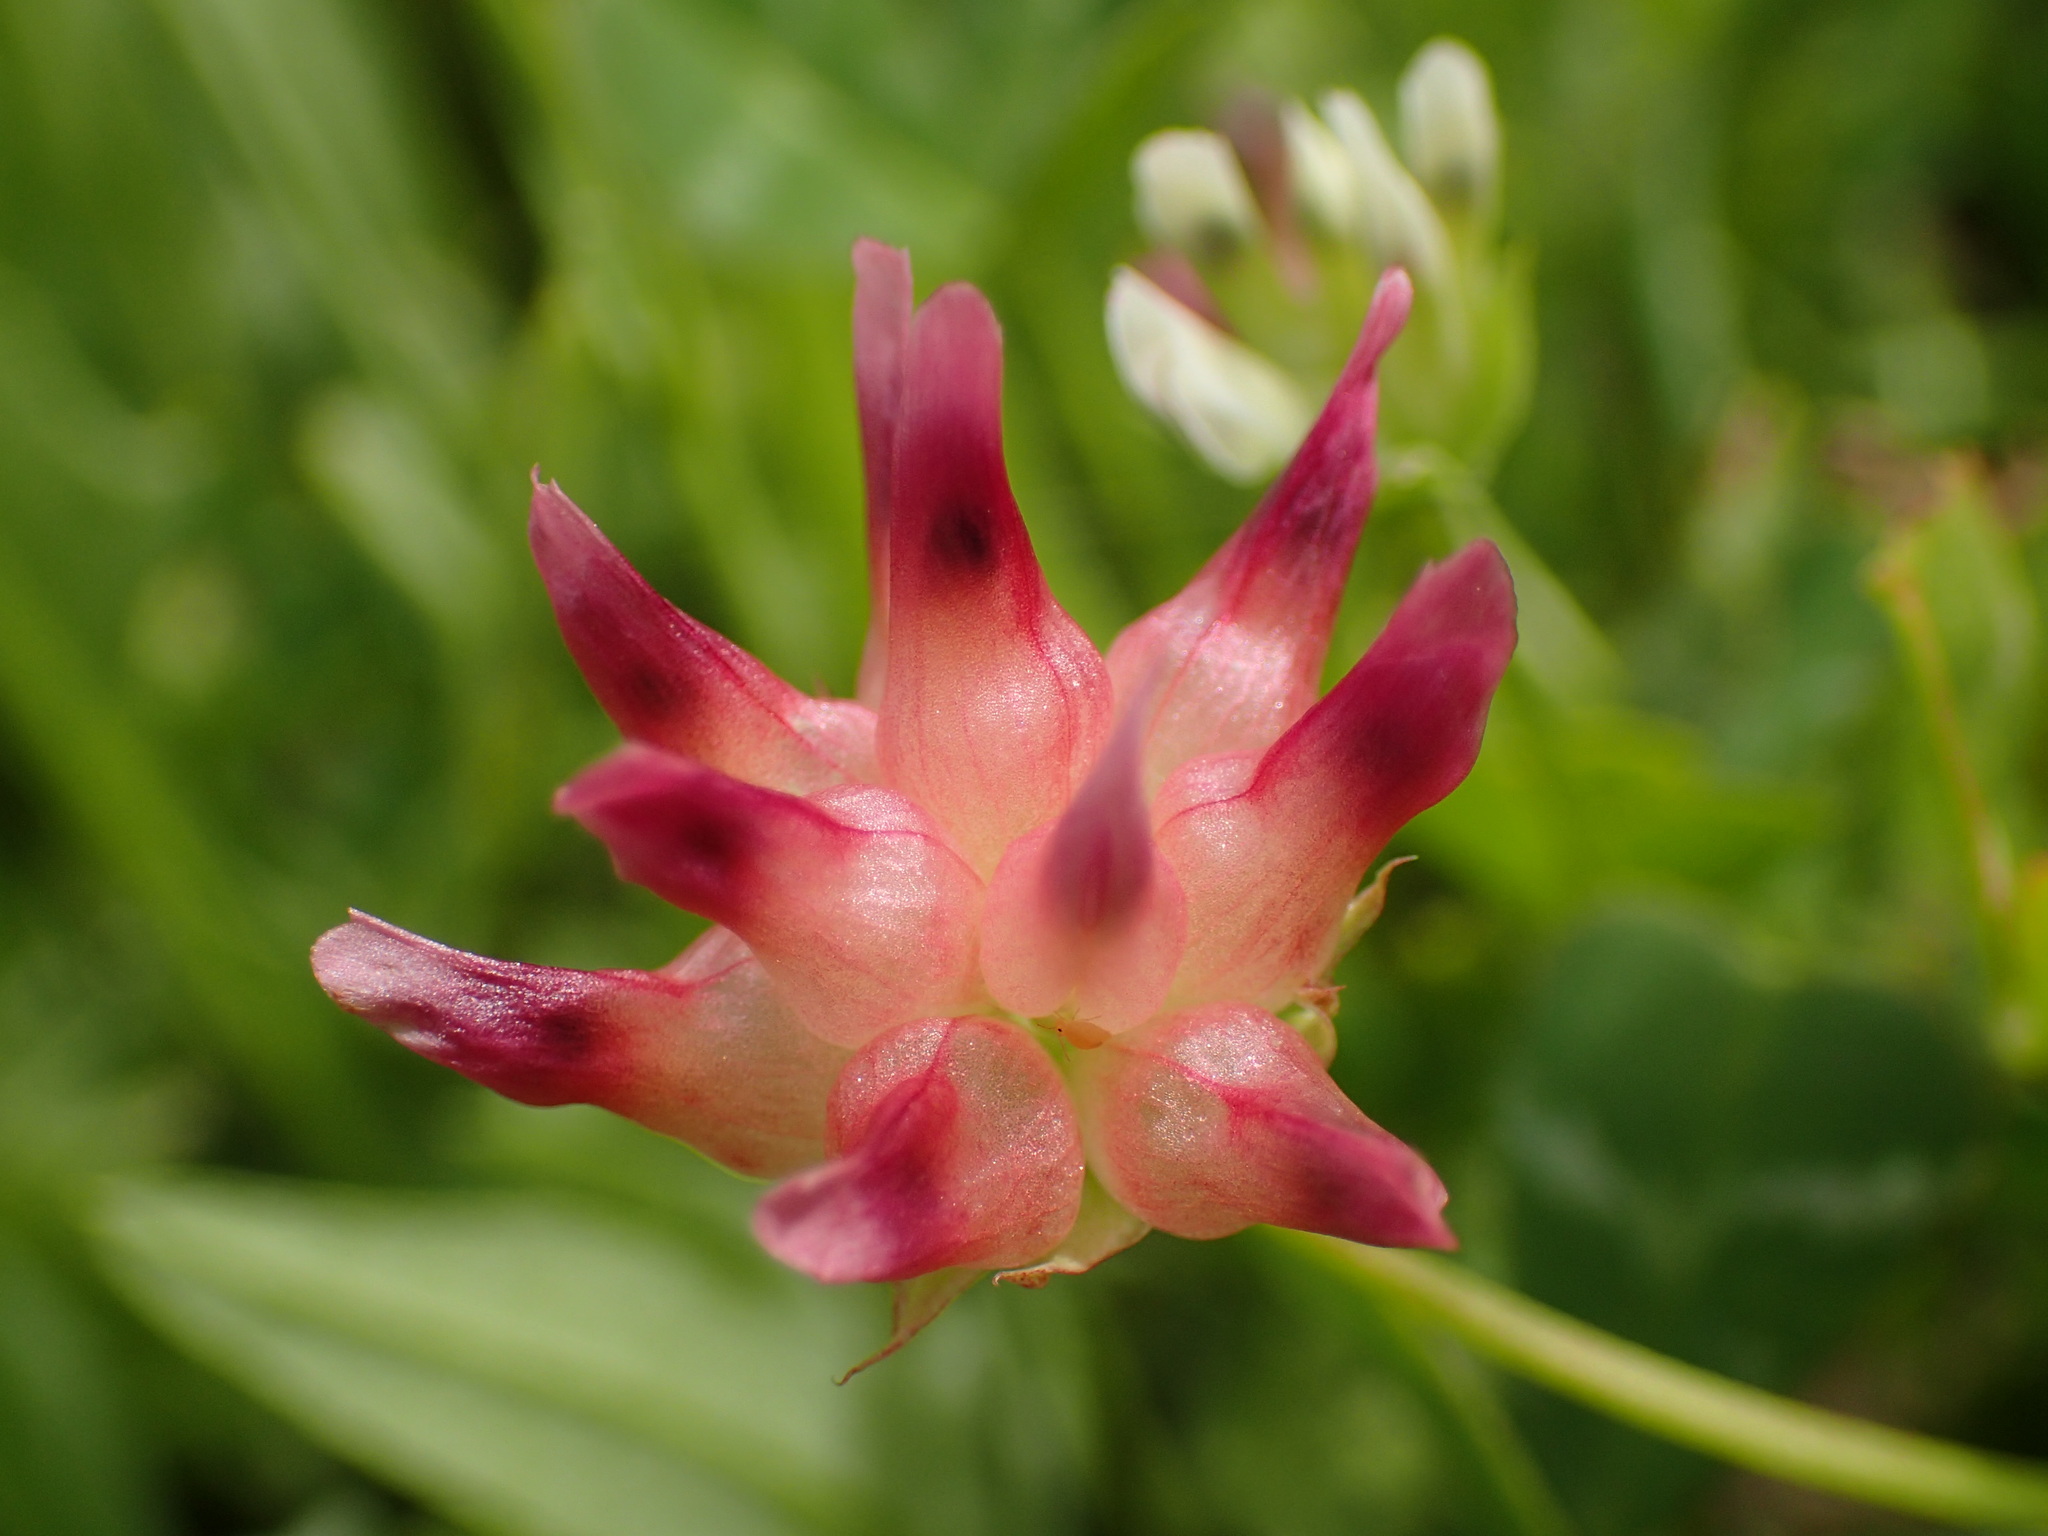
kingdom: Plantae
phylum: Tracheophyta
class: Magnoliopsida
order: Fabales
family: Fabaceae
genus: Trifolium
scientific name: Trifolium fucatum
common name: Puff clover
